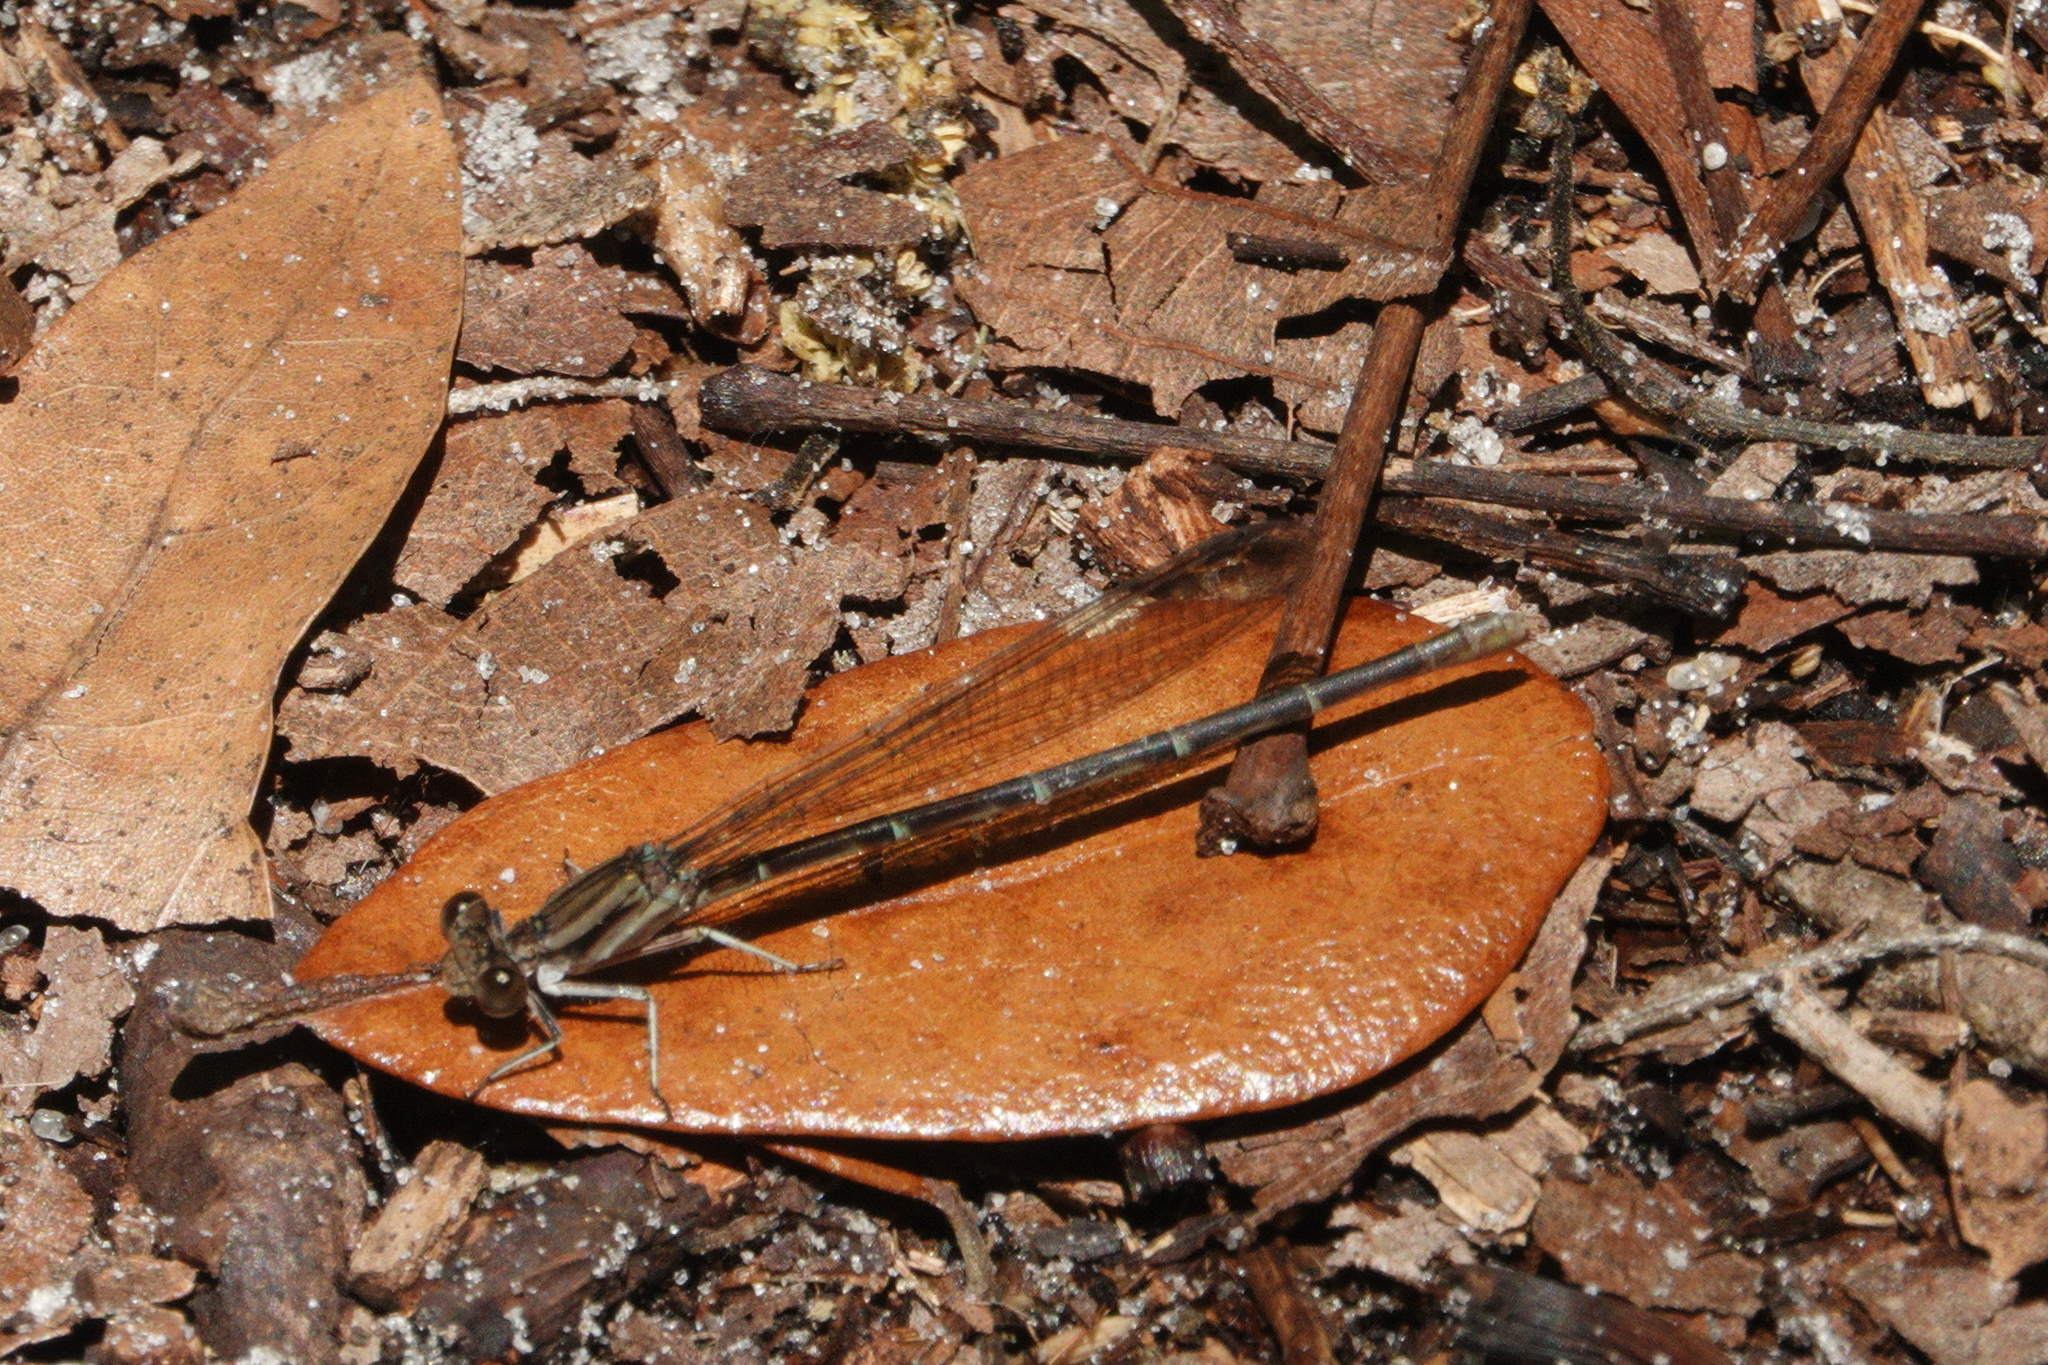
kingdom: Animalia
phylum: Arthropoda
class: Insecta
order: Odonata
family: Coenagrionidae
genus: Argia
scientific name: Argia sedula
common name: Blue-ringed dancer
